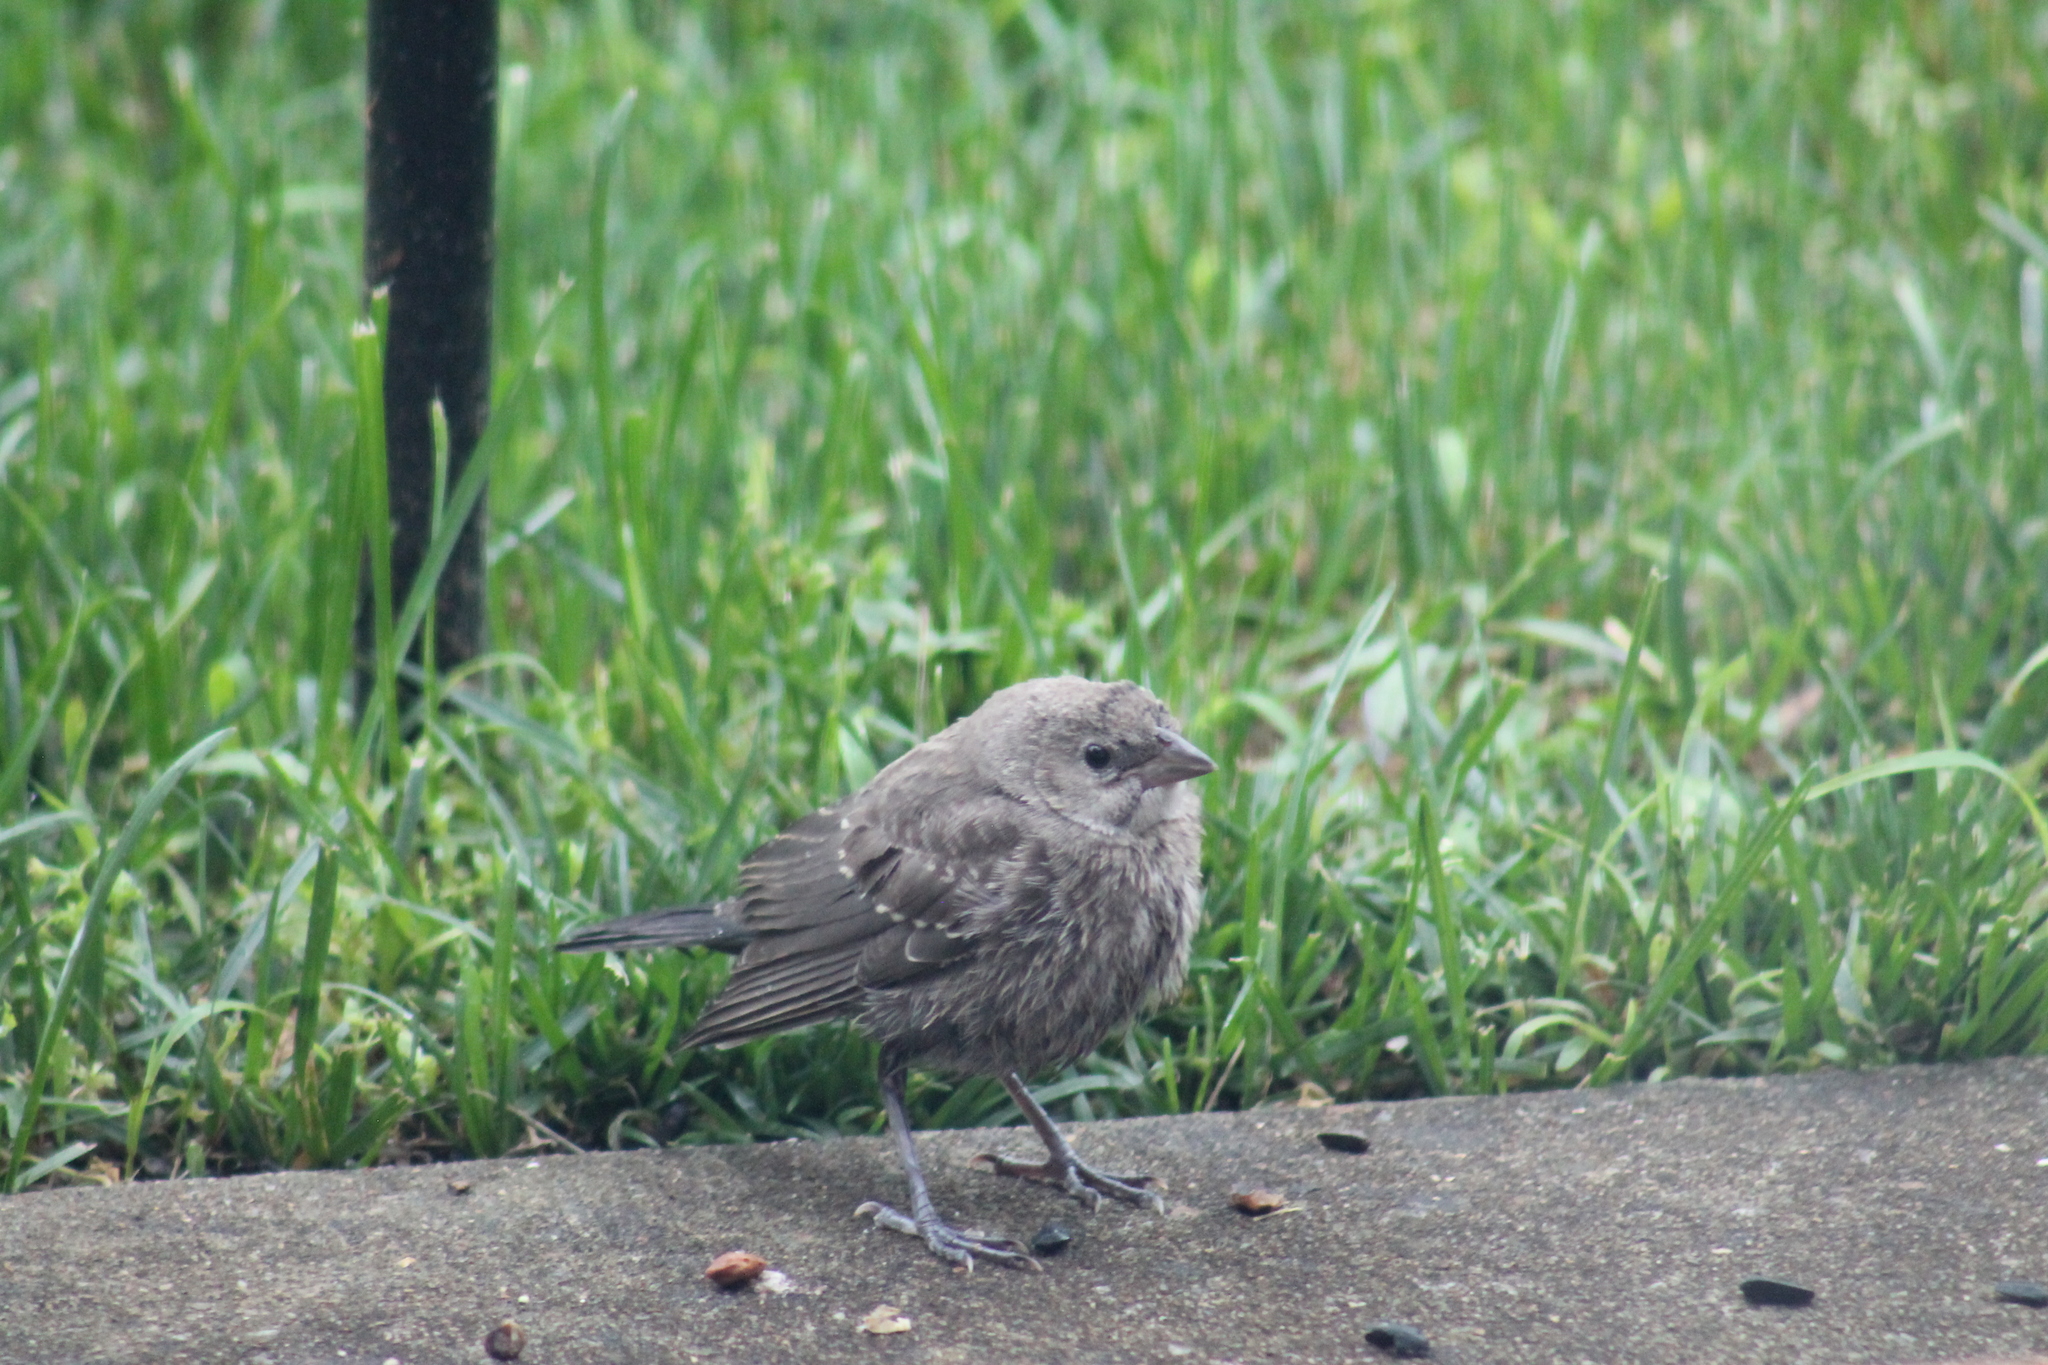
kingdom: Animalia
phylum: Chordata
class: Aves
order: Passeriformes
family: Icteridae
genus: Molothrus
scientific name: Molothrus ater
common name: Brown-headed cowbird
